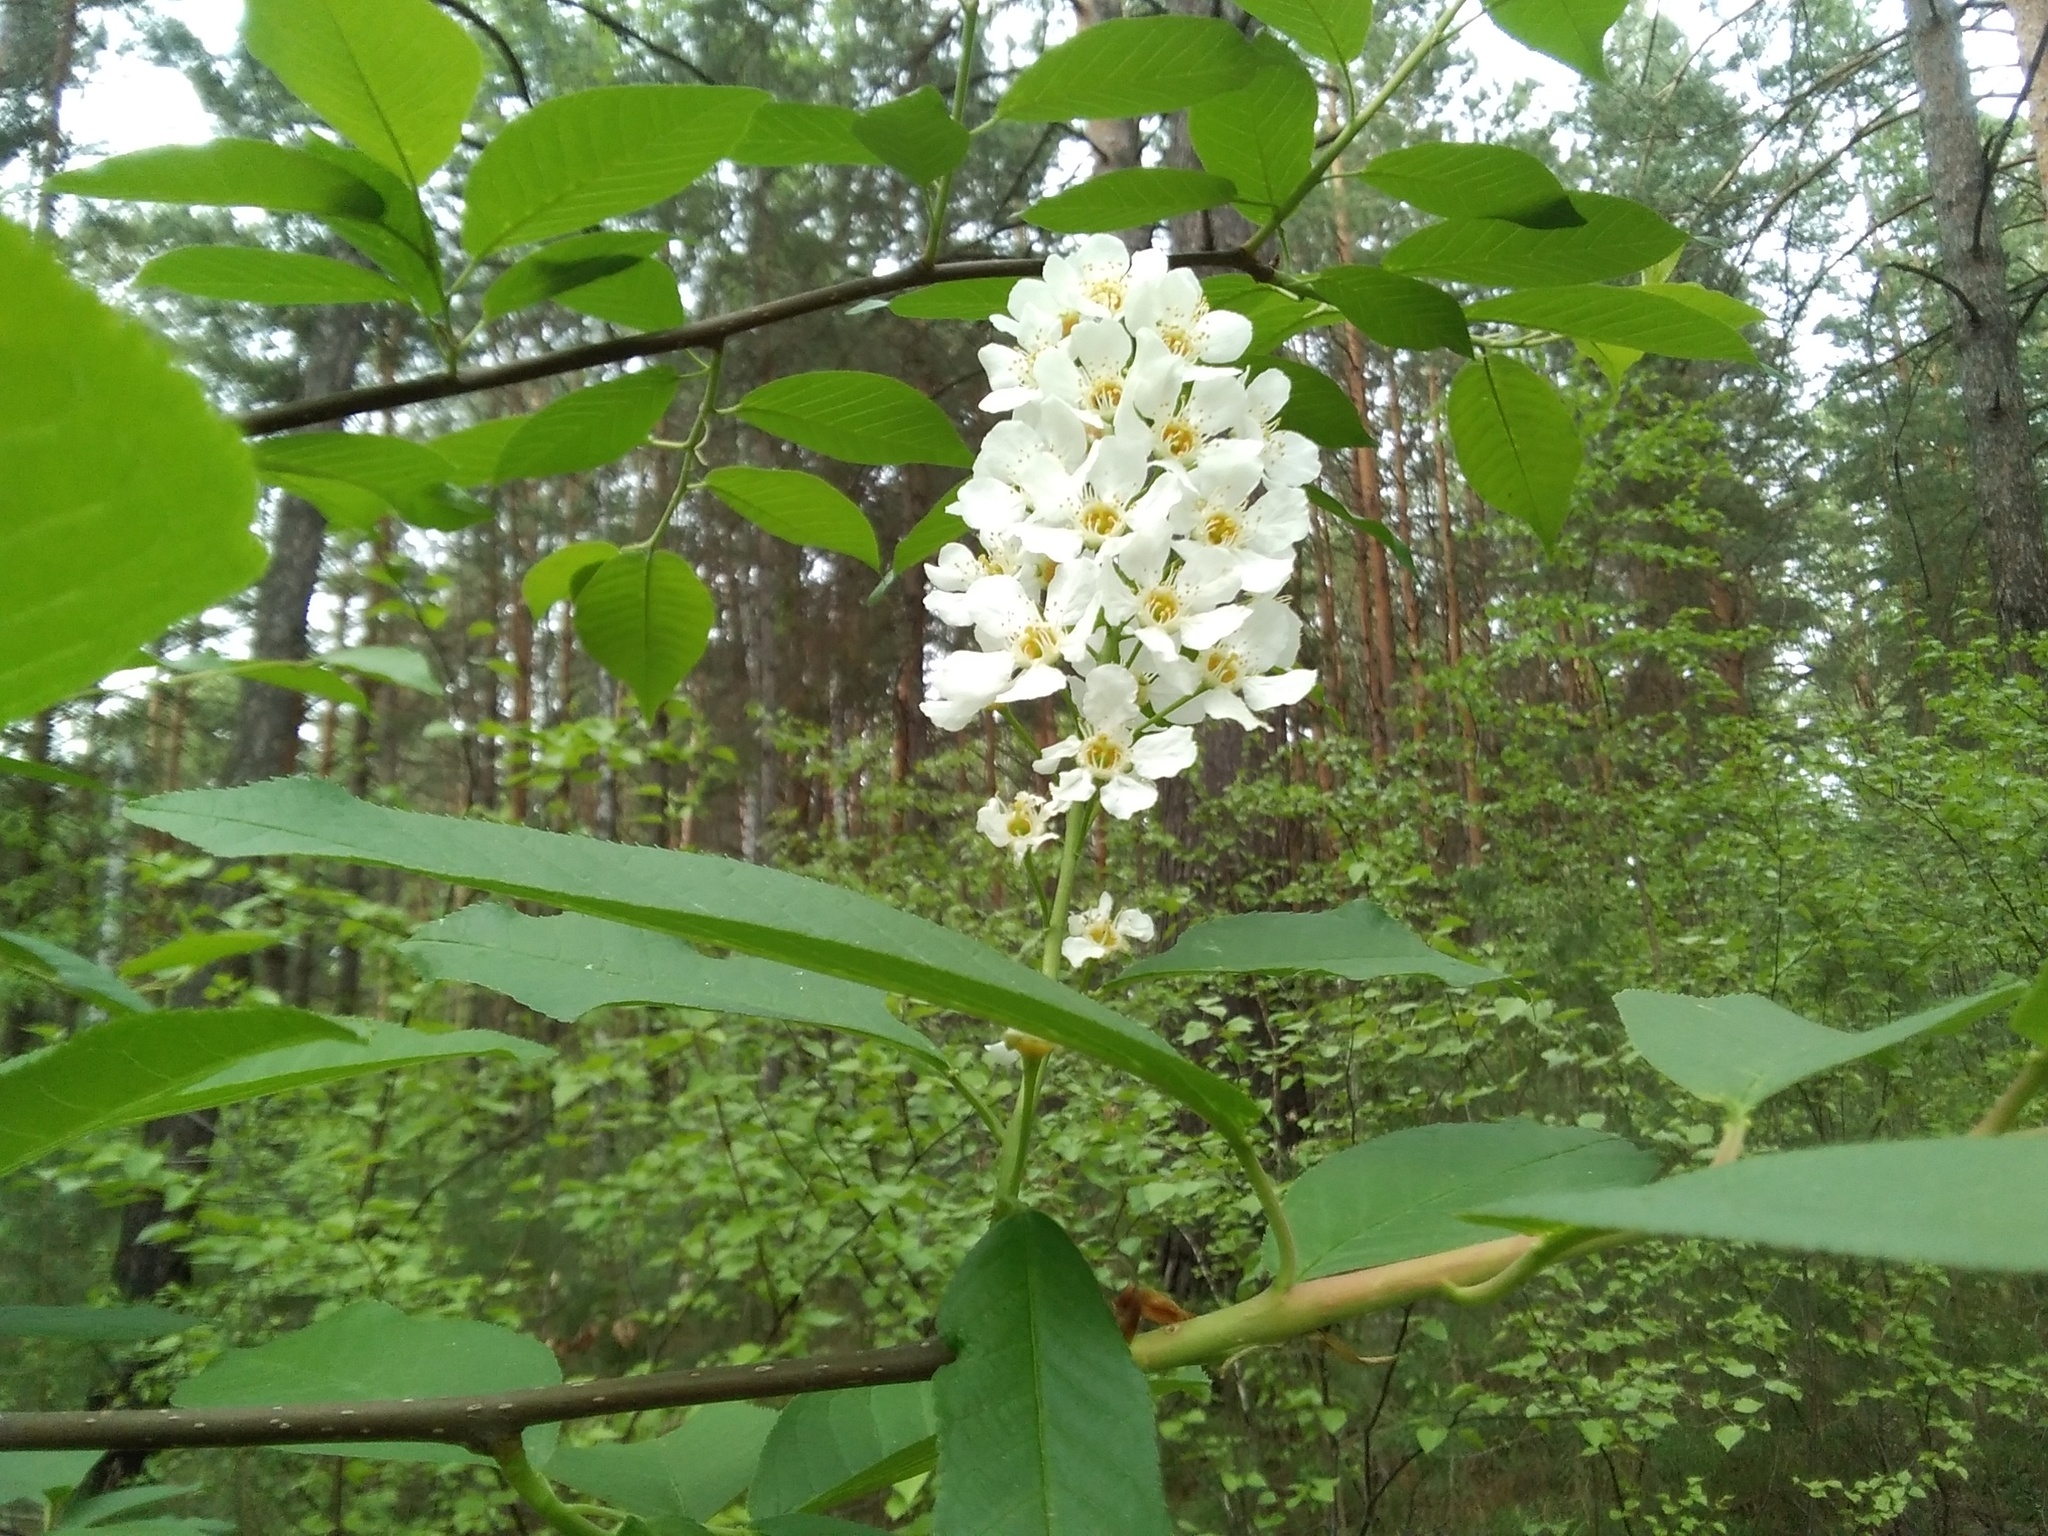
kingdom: Plantae
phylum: Tracheophyta
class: Magnoliopsida
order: Rosales
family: Rosaceae
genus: Prunus
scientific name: Prunus padus
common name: Bird cherry
